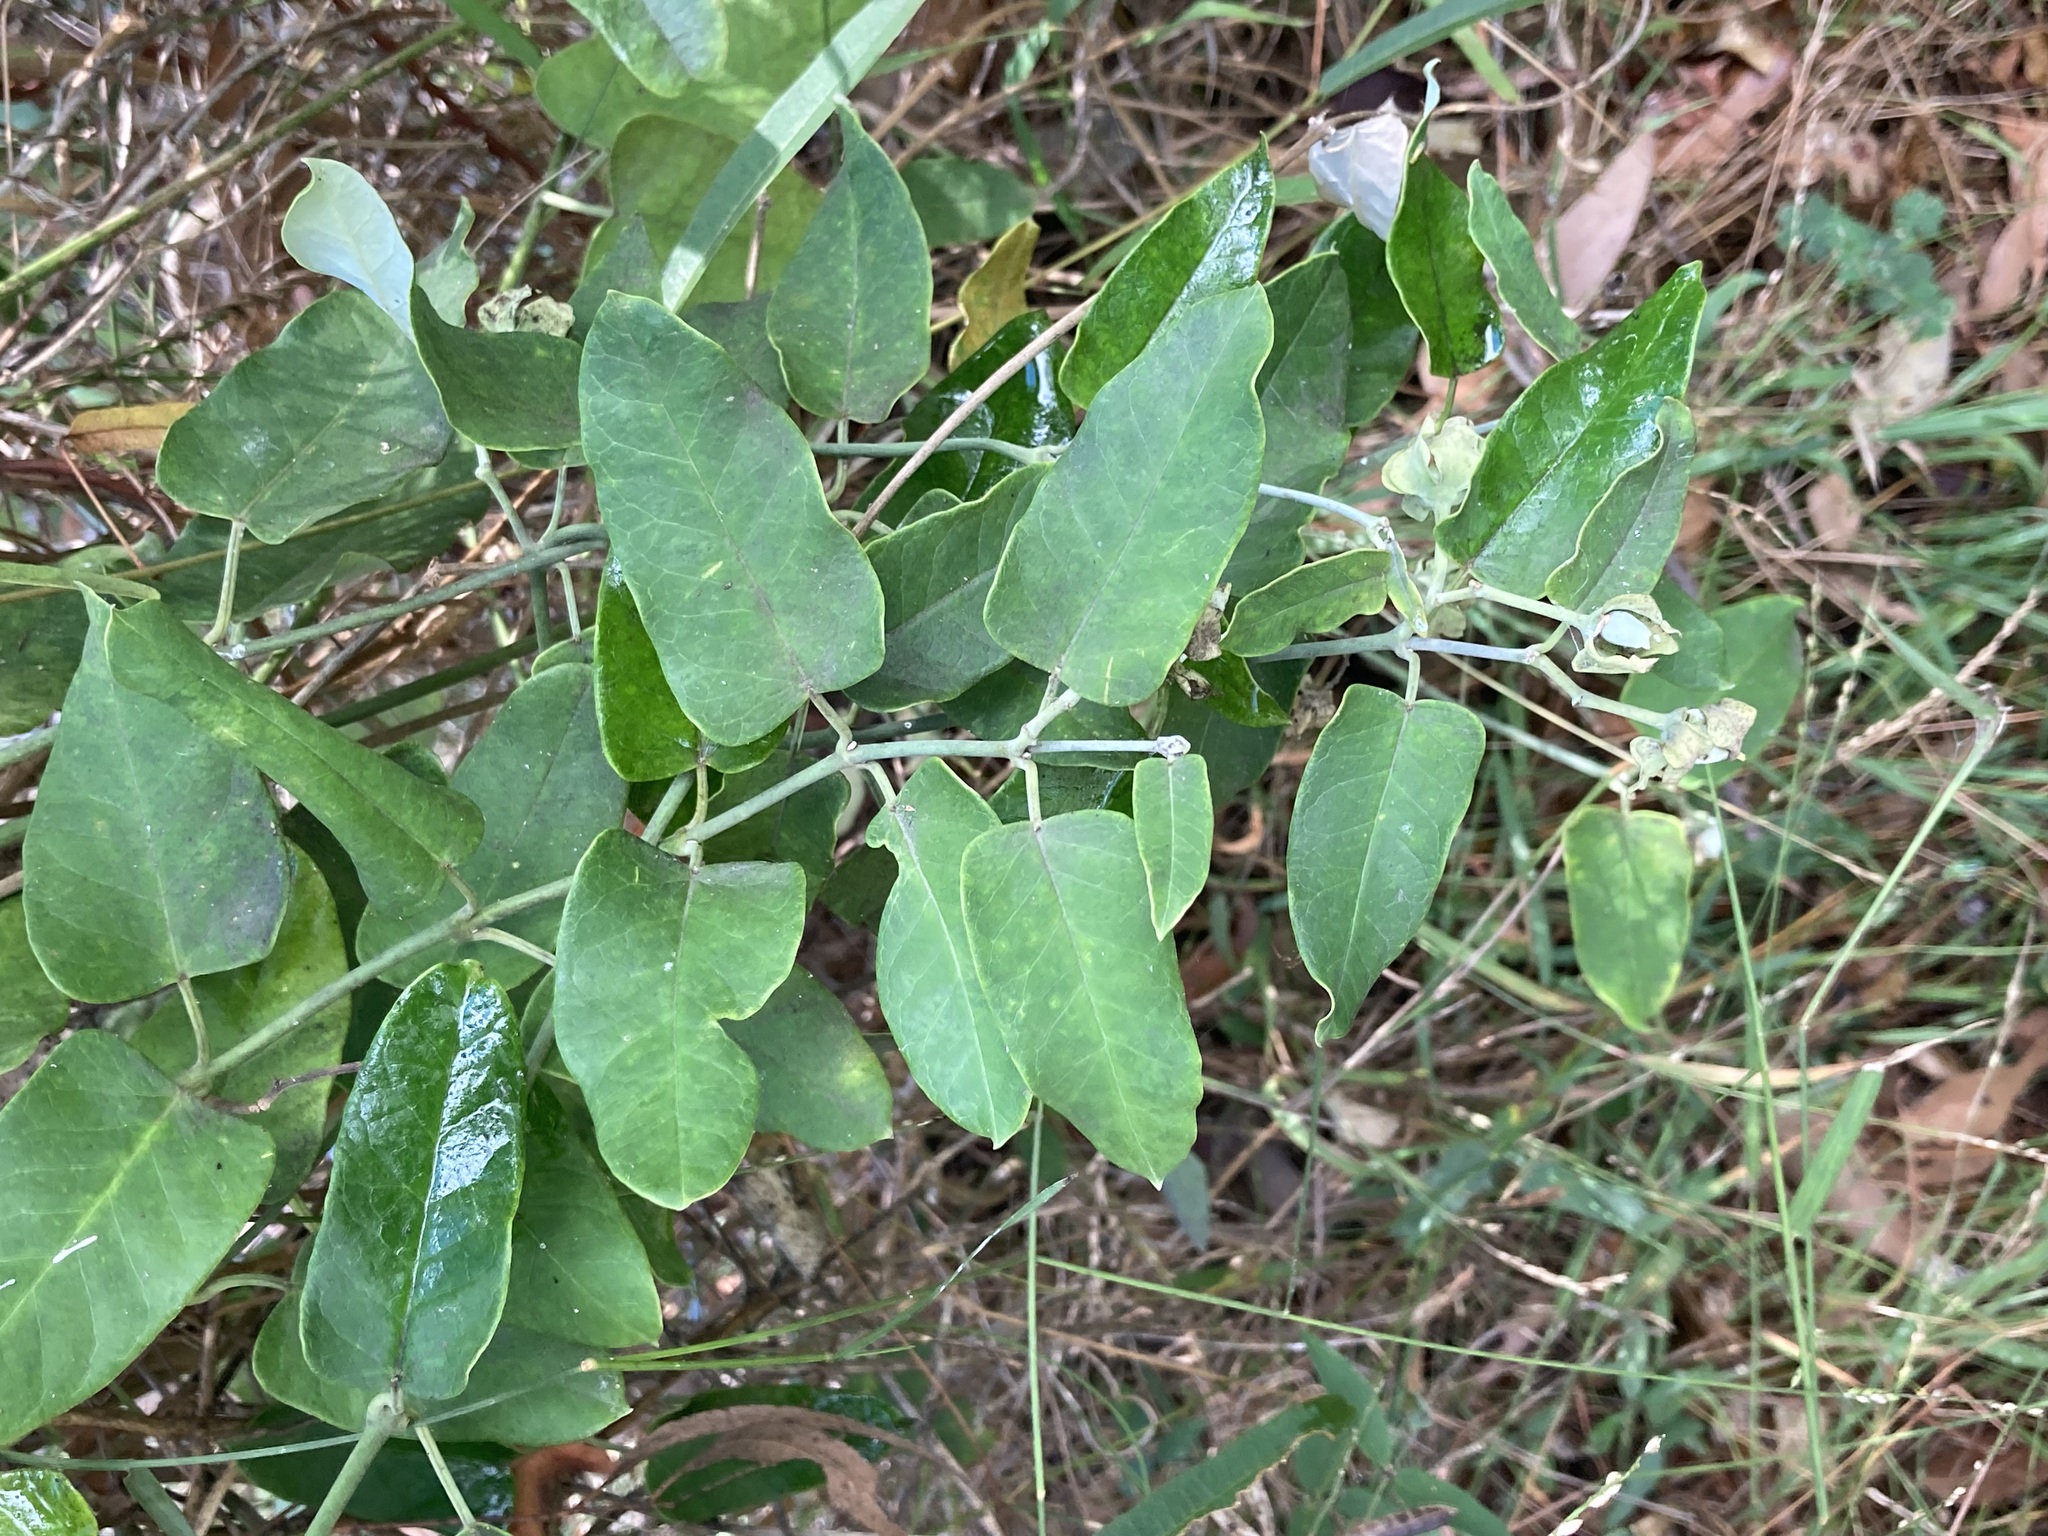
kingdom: Plantae
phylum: Tracheophyta
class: Magnoliopsida
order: Gentianales
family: Apocynaceae
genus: Araujia
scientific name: Araujia sericifera
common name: White bladderflower
